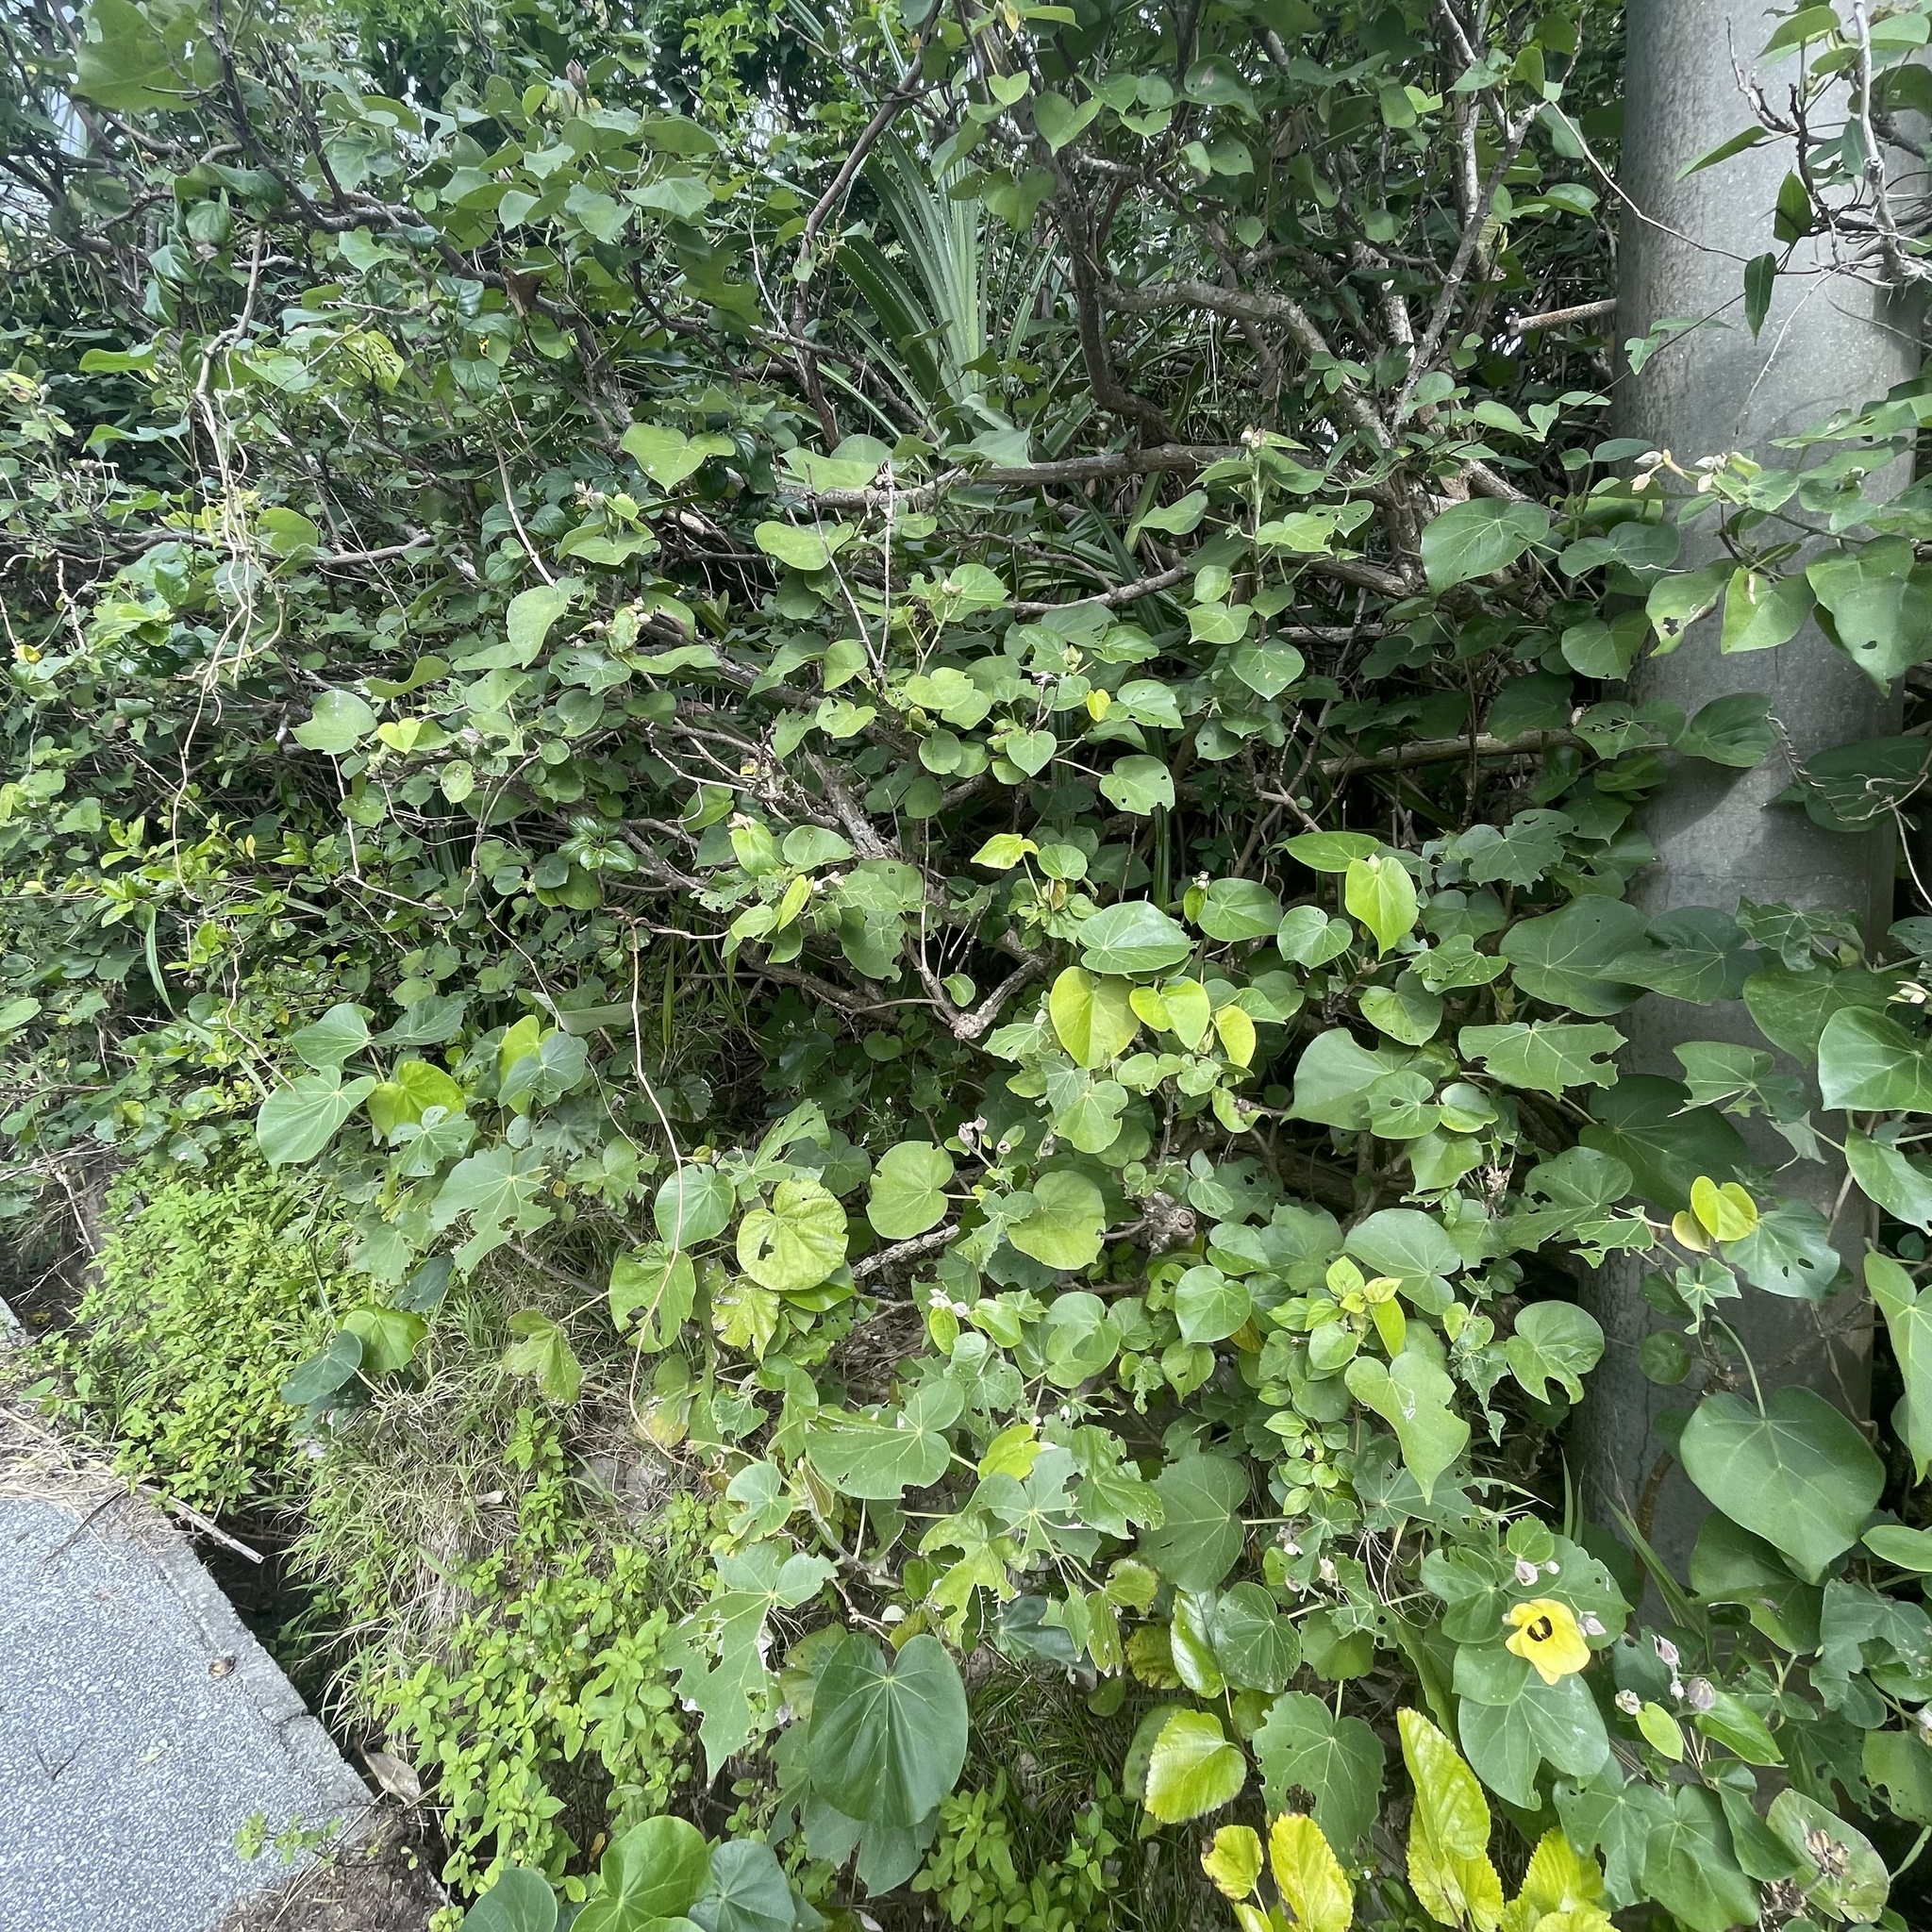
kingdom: Plantae
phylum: Tracheophyta
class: Magnoliopsida
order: Malvales
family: Malvaceae
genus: Talipariti
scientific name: Talipariti tiliaceum
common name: Sea hibiscus
